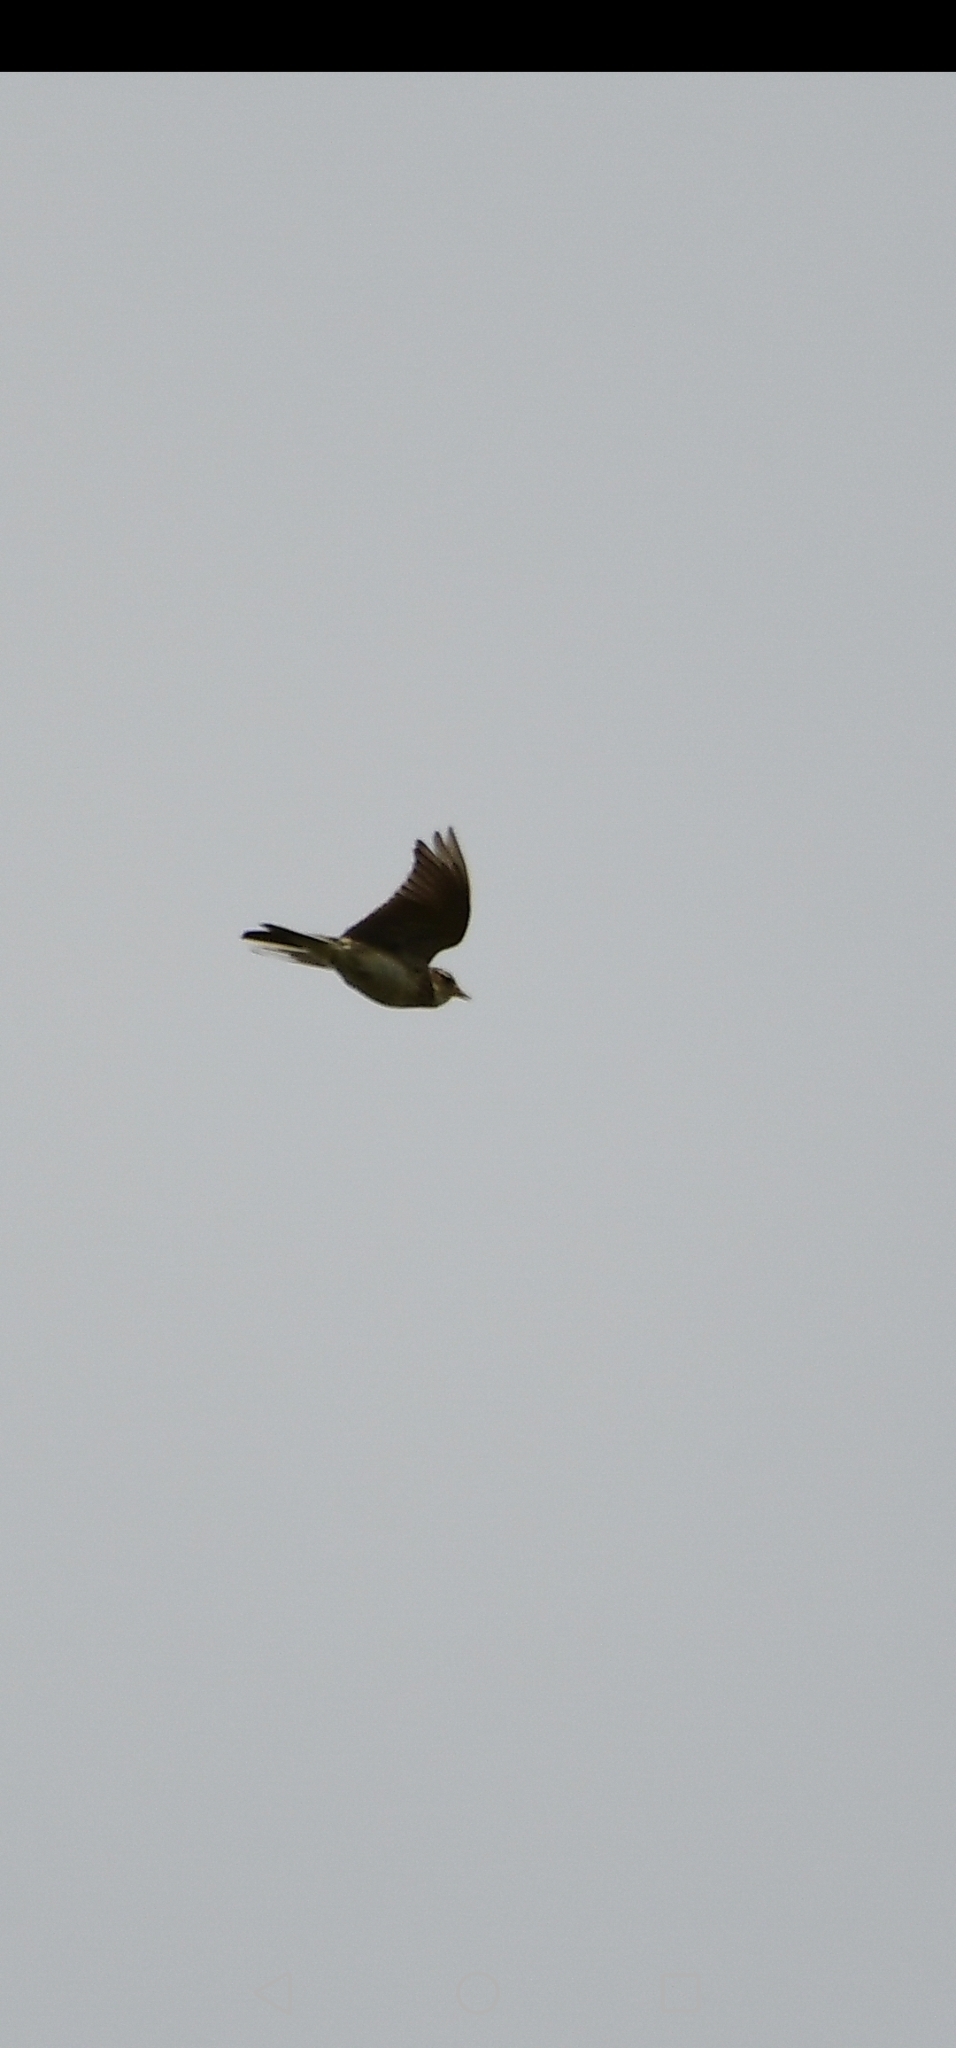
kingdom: Animalia
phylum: Chordata
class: Aves
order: Passeriformes
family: Alaudidae
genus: Alauda
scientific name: Alauda arvensis
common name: Eurasian skylark
